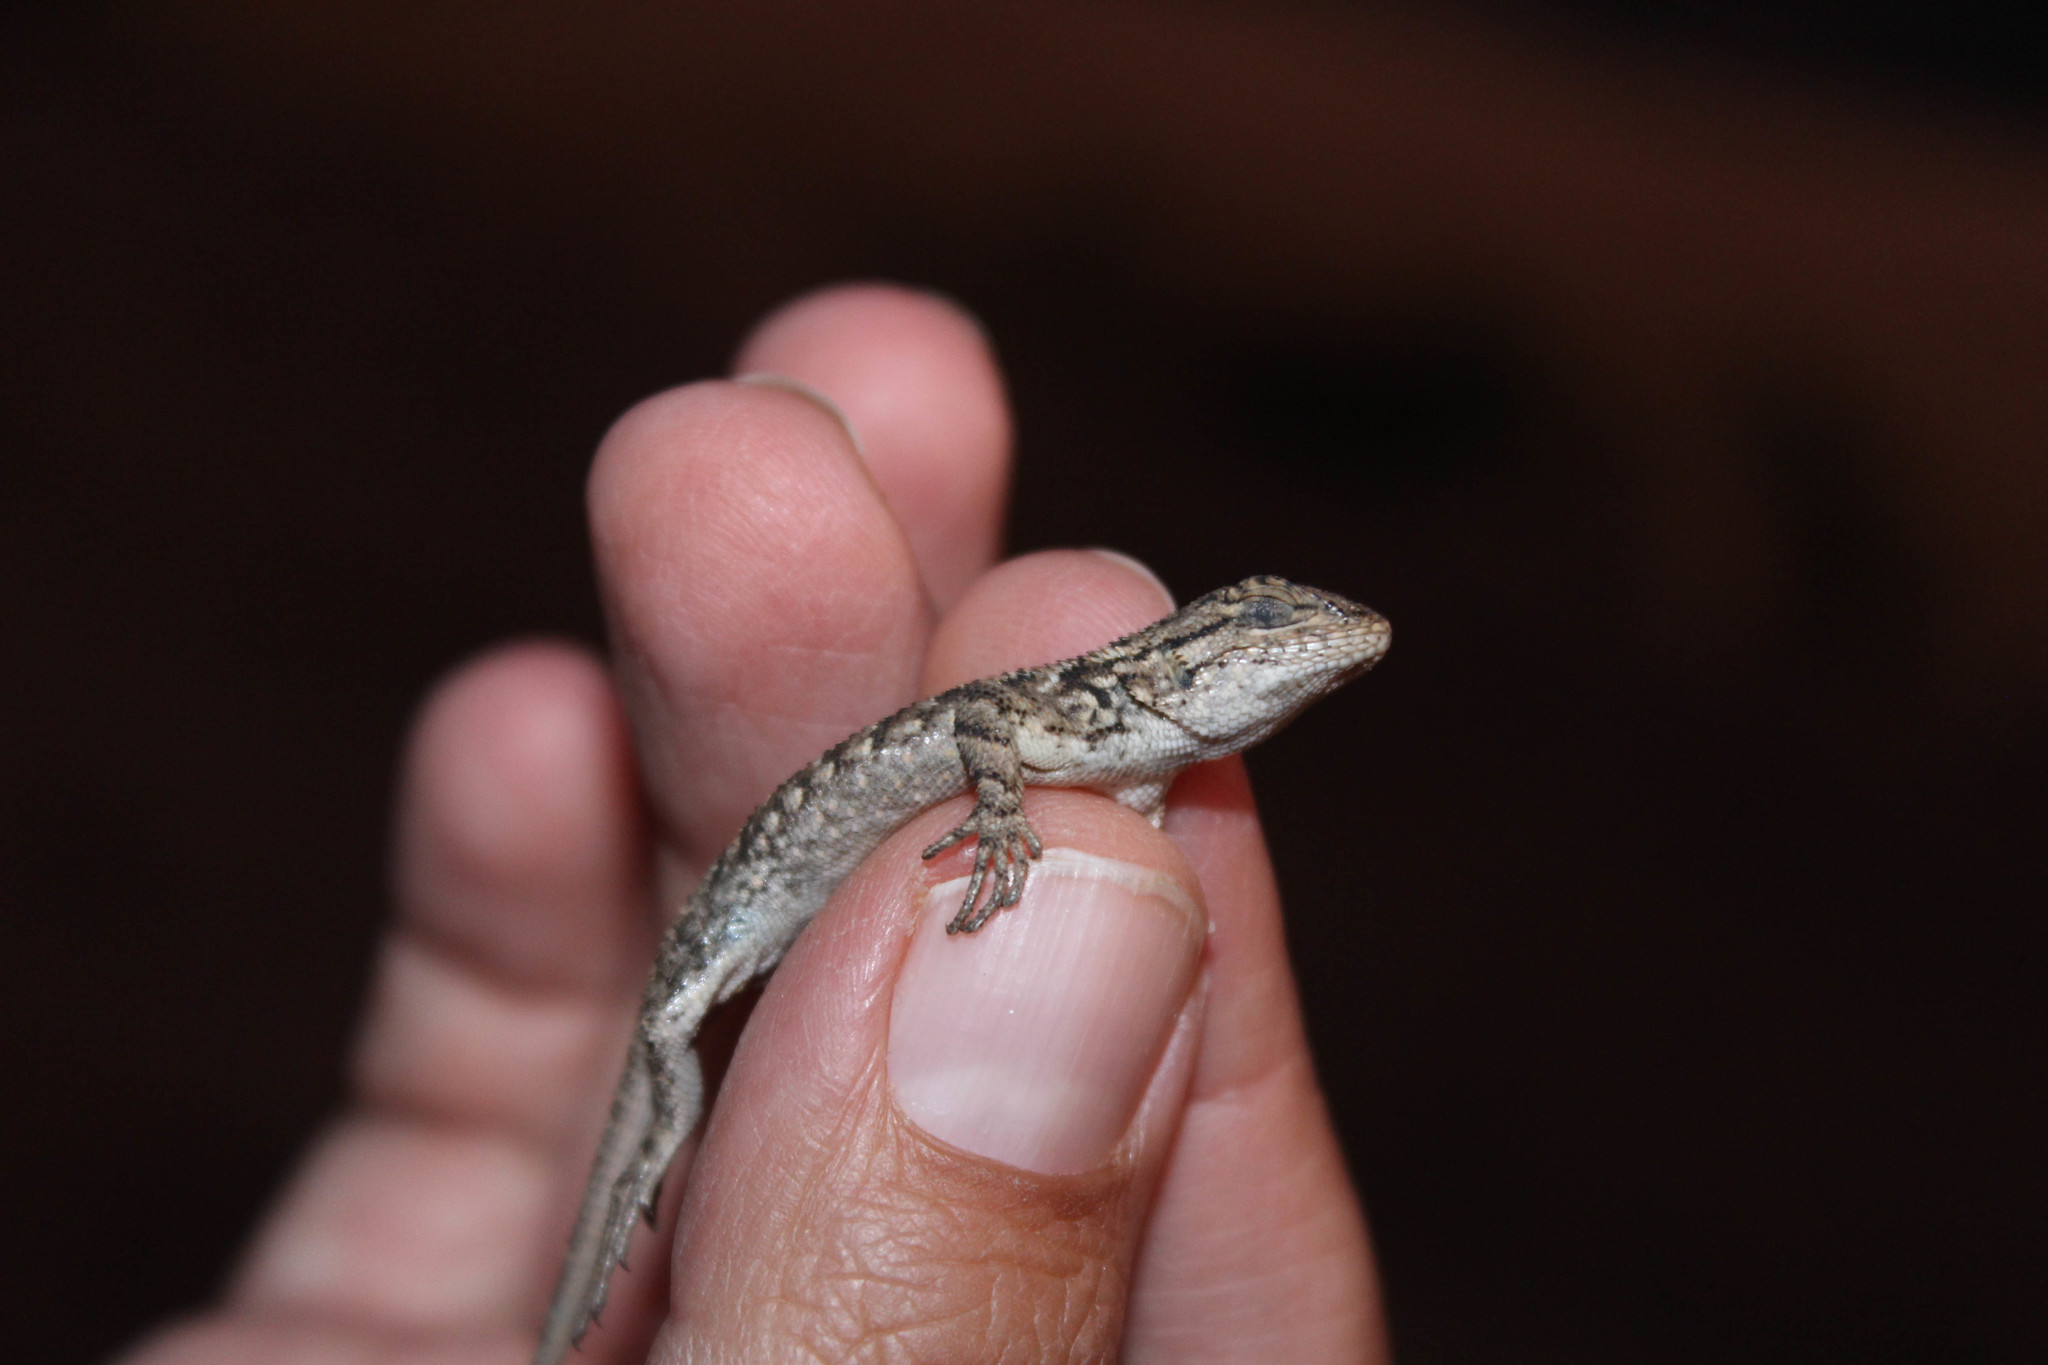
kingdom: Animalia
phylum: Chordata
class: Squamata
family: Phrynosomatidae
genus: Sceloporus
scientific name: Sceloporus occidentalis
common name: Western fence lizard
